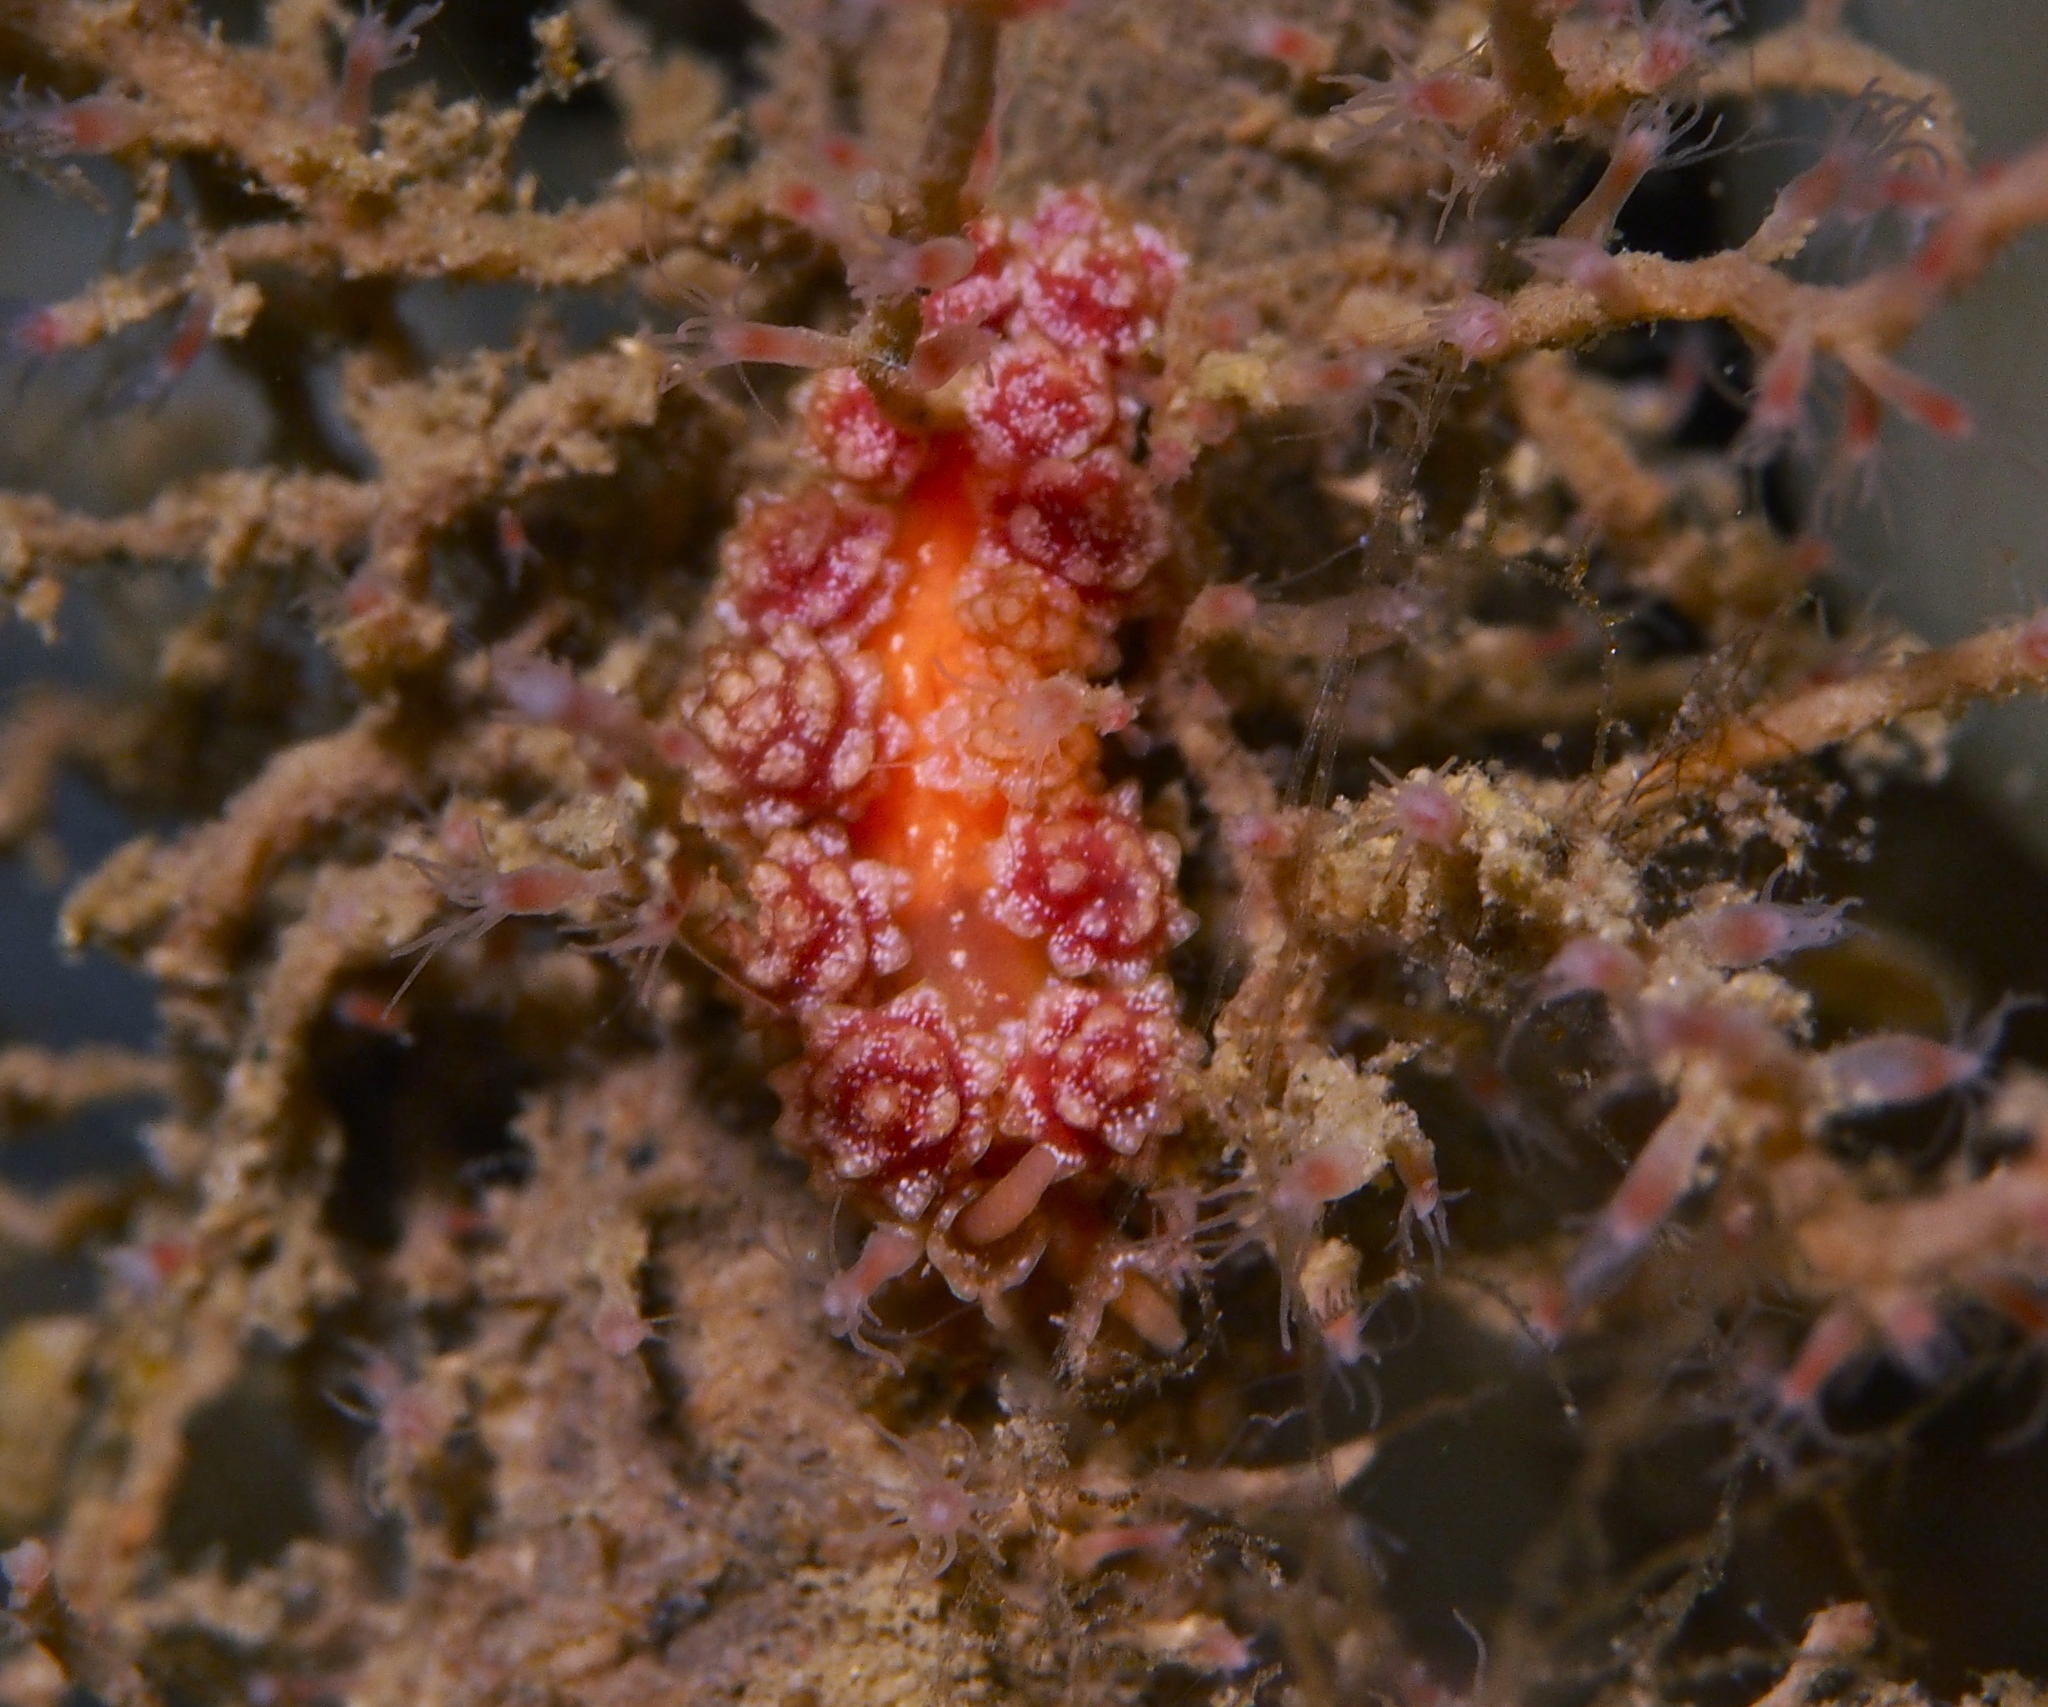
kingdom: Animalia
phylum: Mollusca
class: Gastropoda
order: Nudibranchia
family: Dotidae
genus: Doto
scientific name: Doto fragilis
